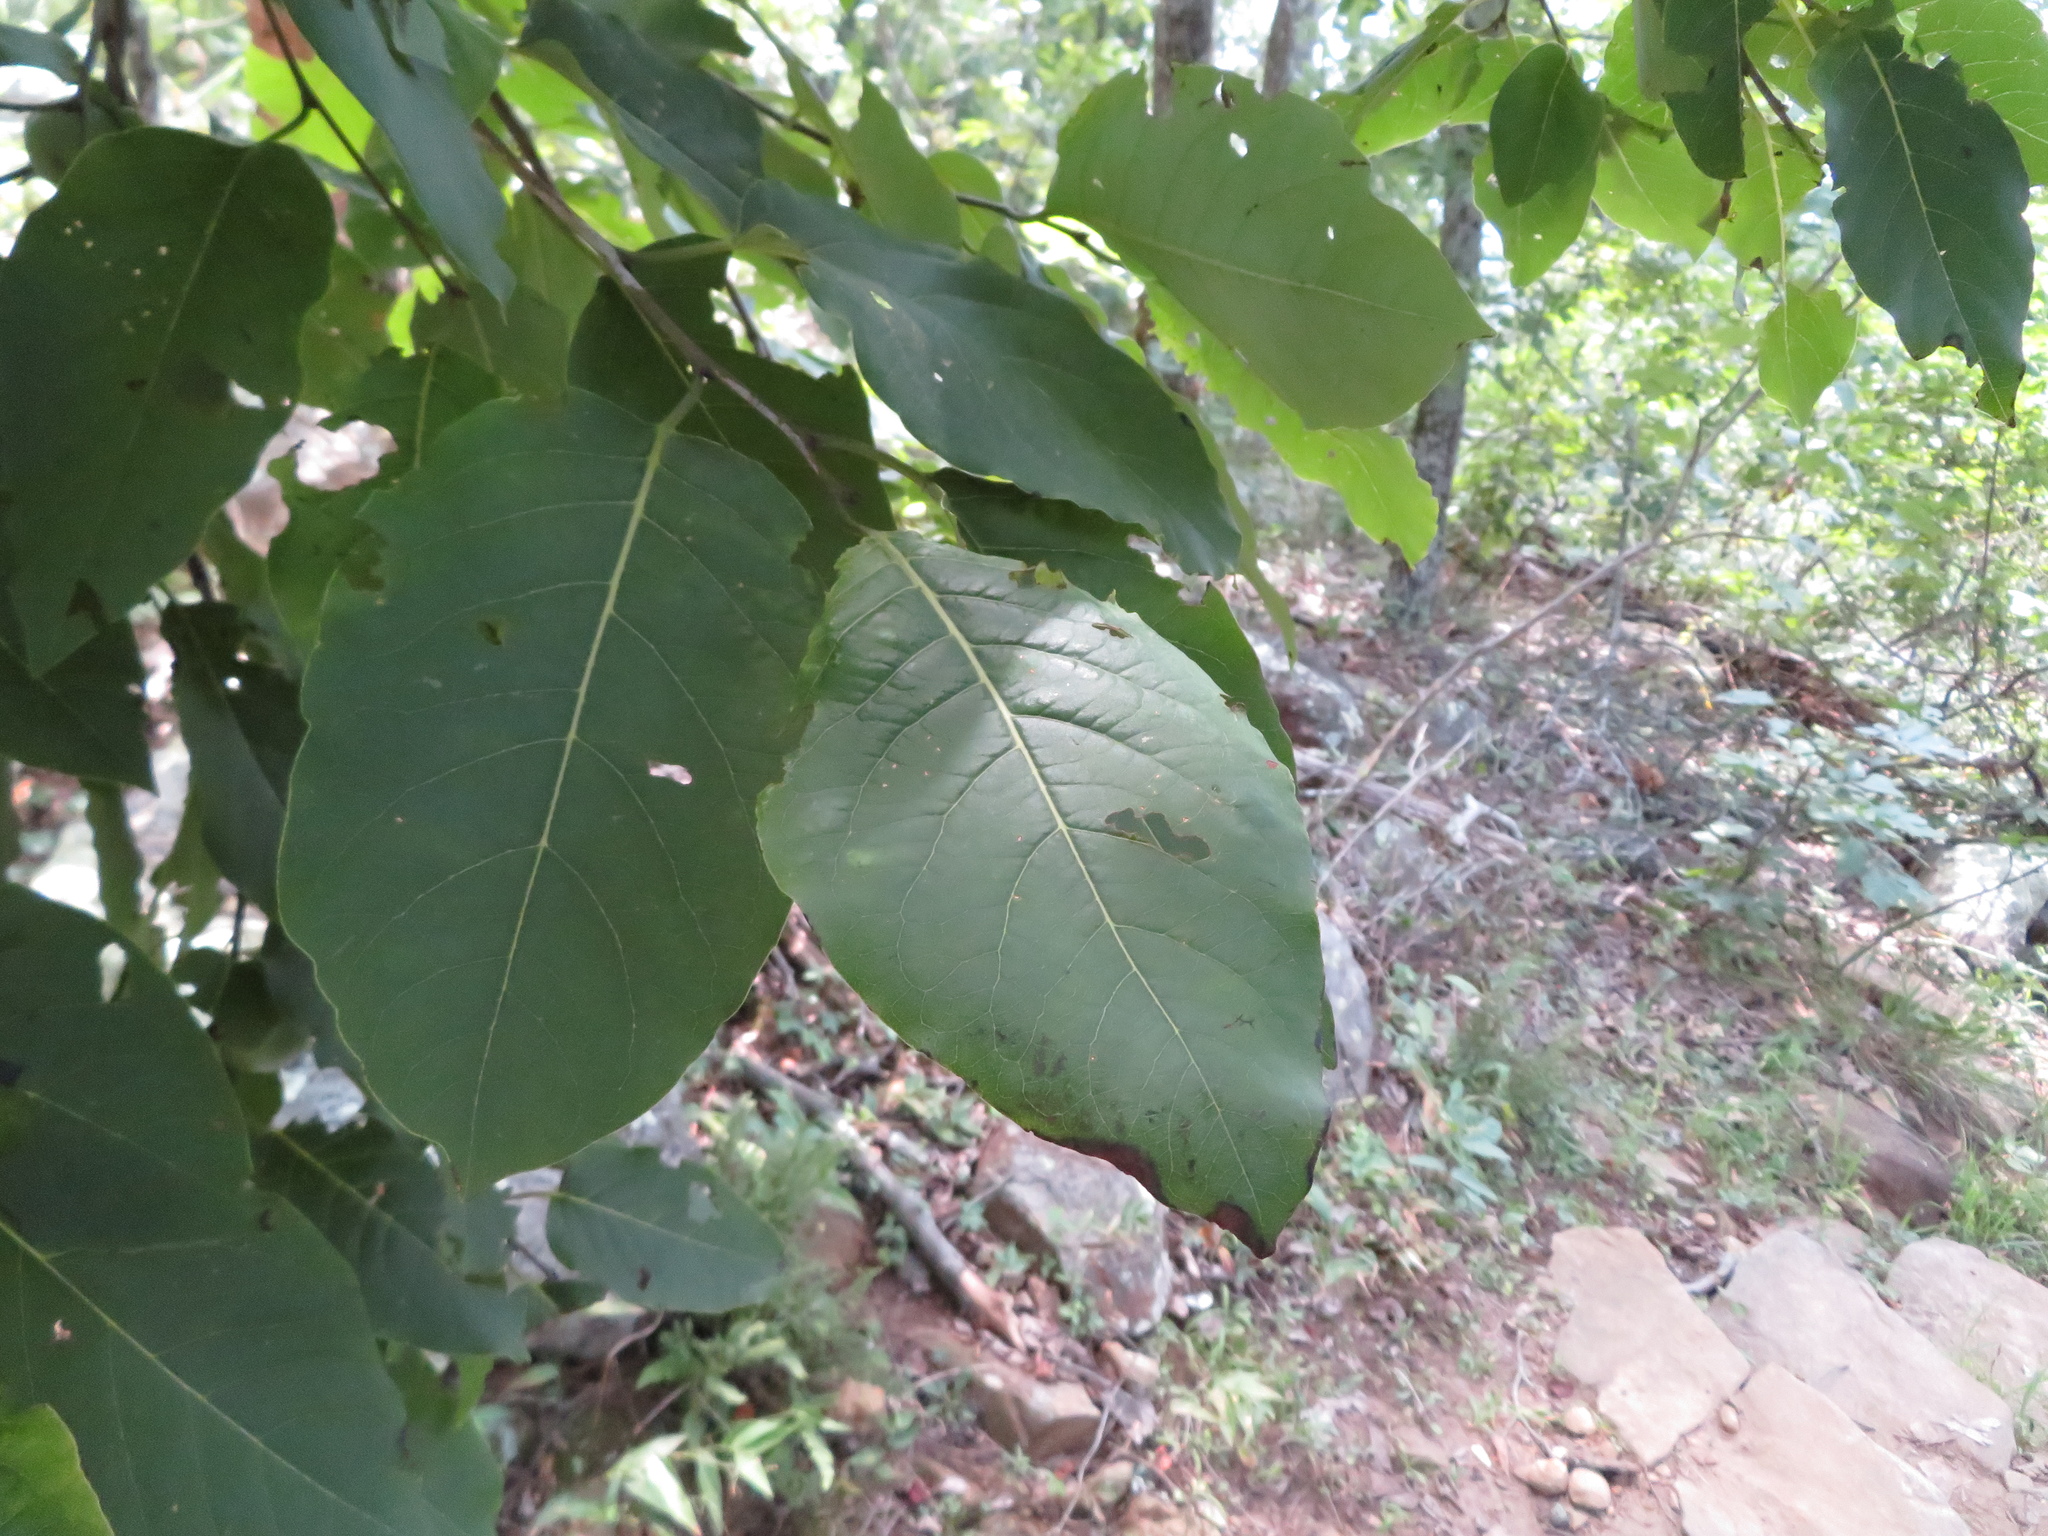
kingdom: Plantae
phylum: Tracheophyta
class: Magnoliopsida
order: Ericales
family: Ebenaceae
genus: Diospyros
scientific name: Diospyros virginiana
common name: Persimmon
